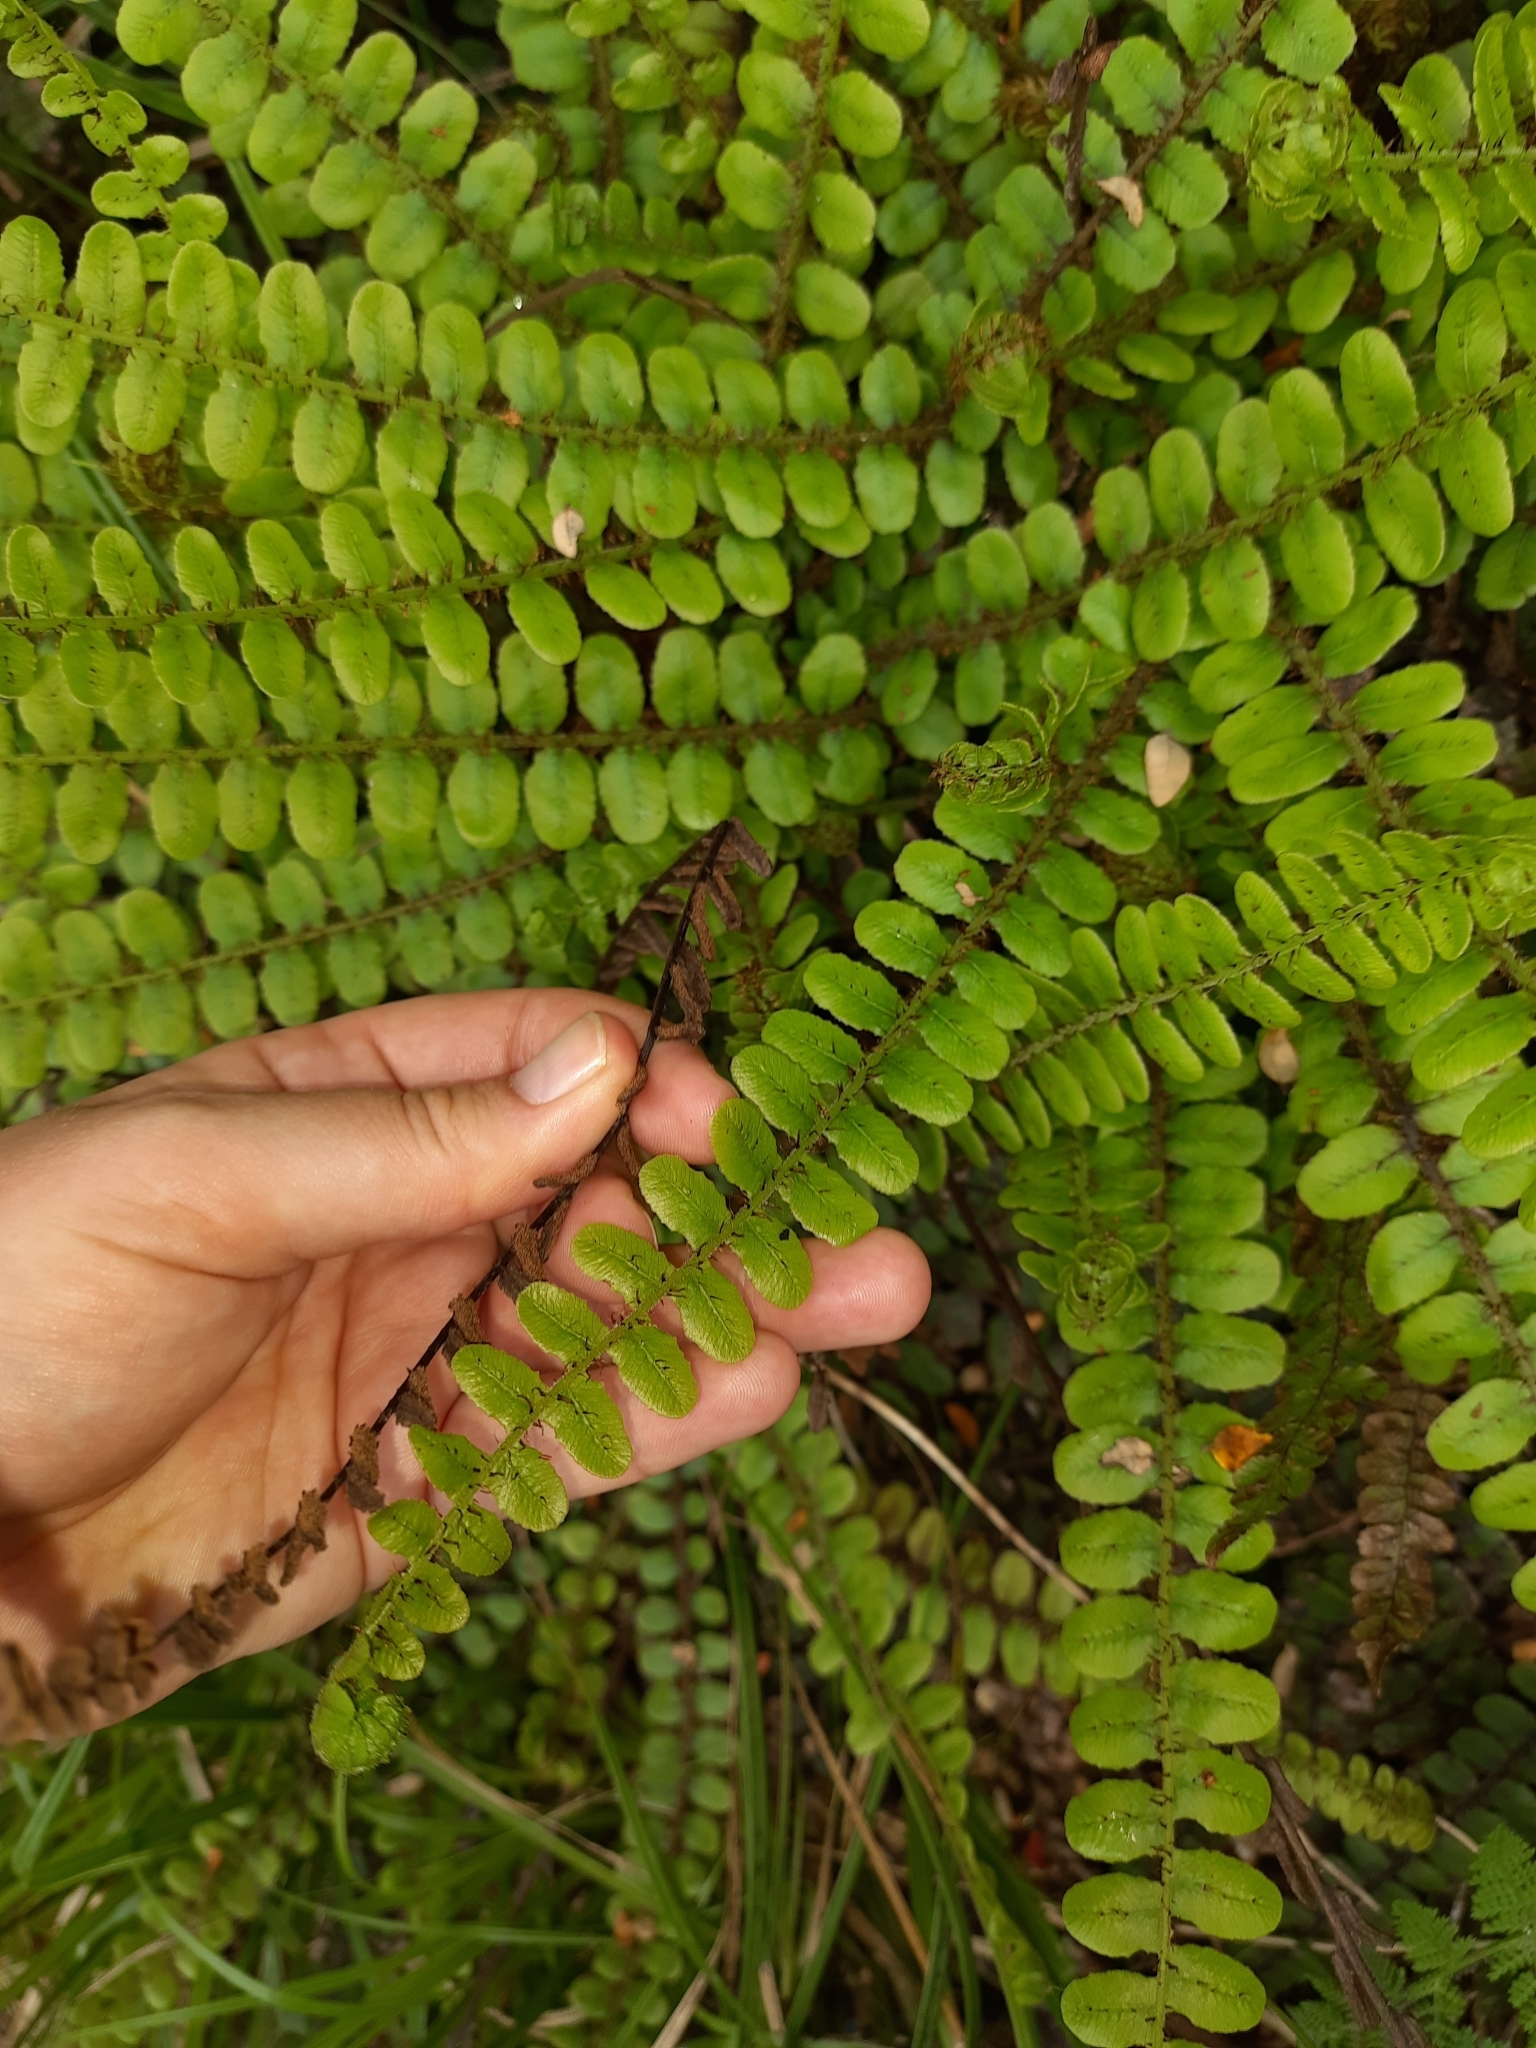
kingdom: Plantae
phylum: Tracheophyta
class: Polypodiopsida
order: Polypodiales
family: Blechnaceae
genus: Cranfillia
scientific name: Cranfillia fluviatilis
